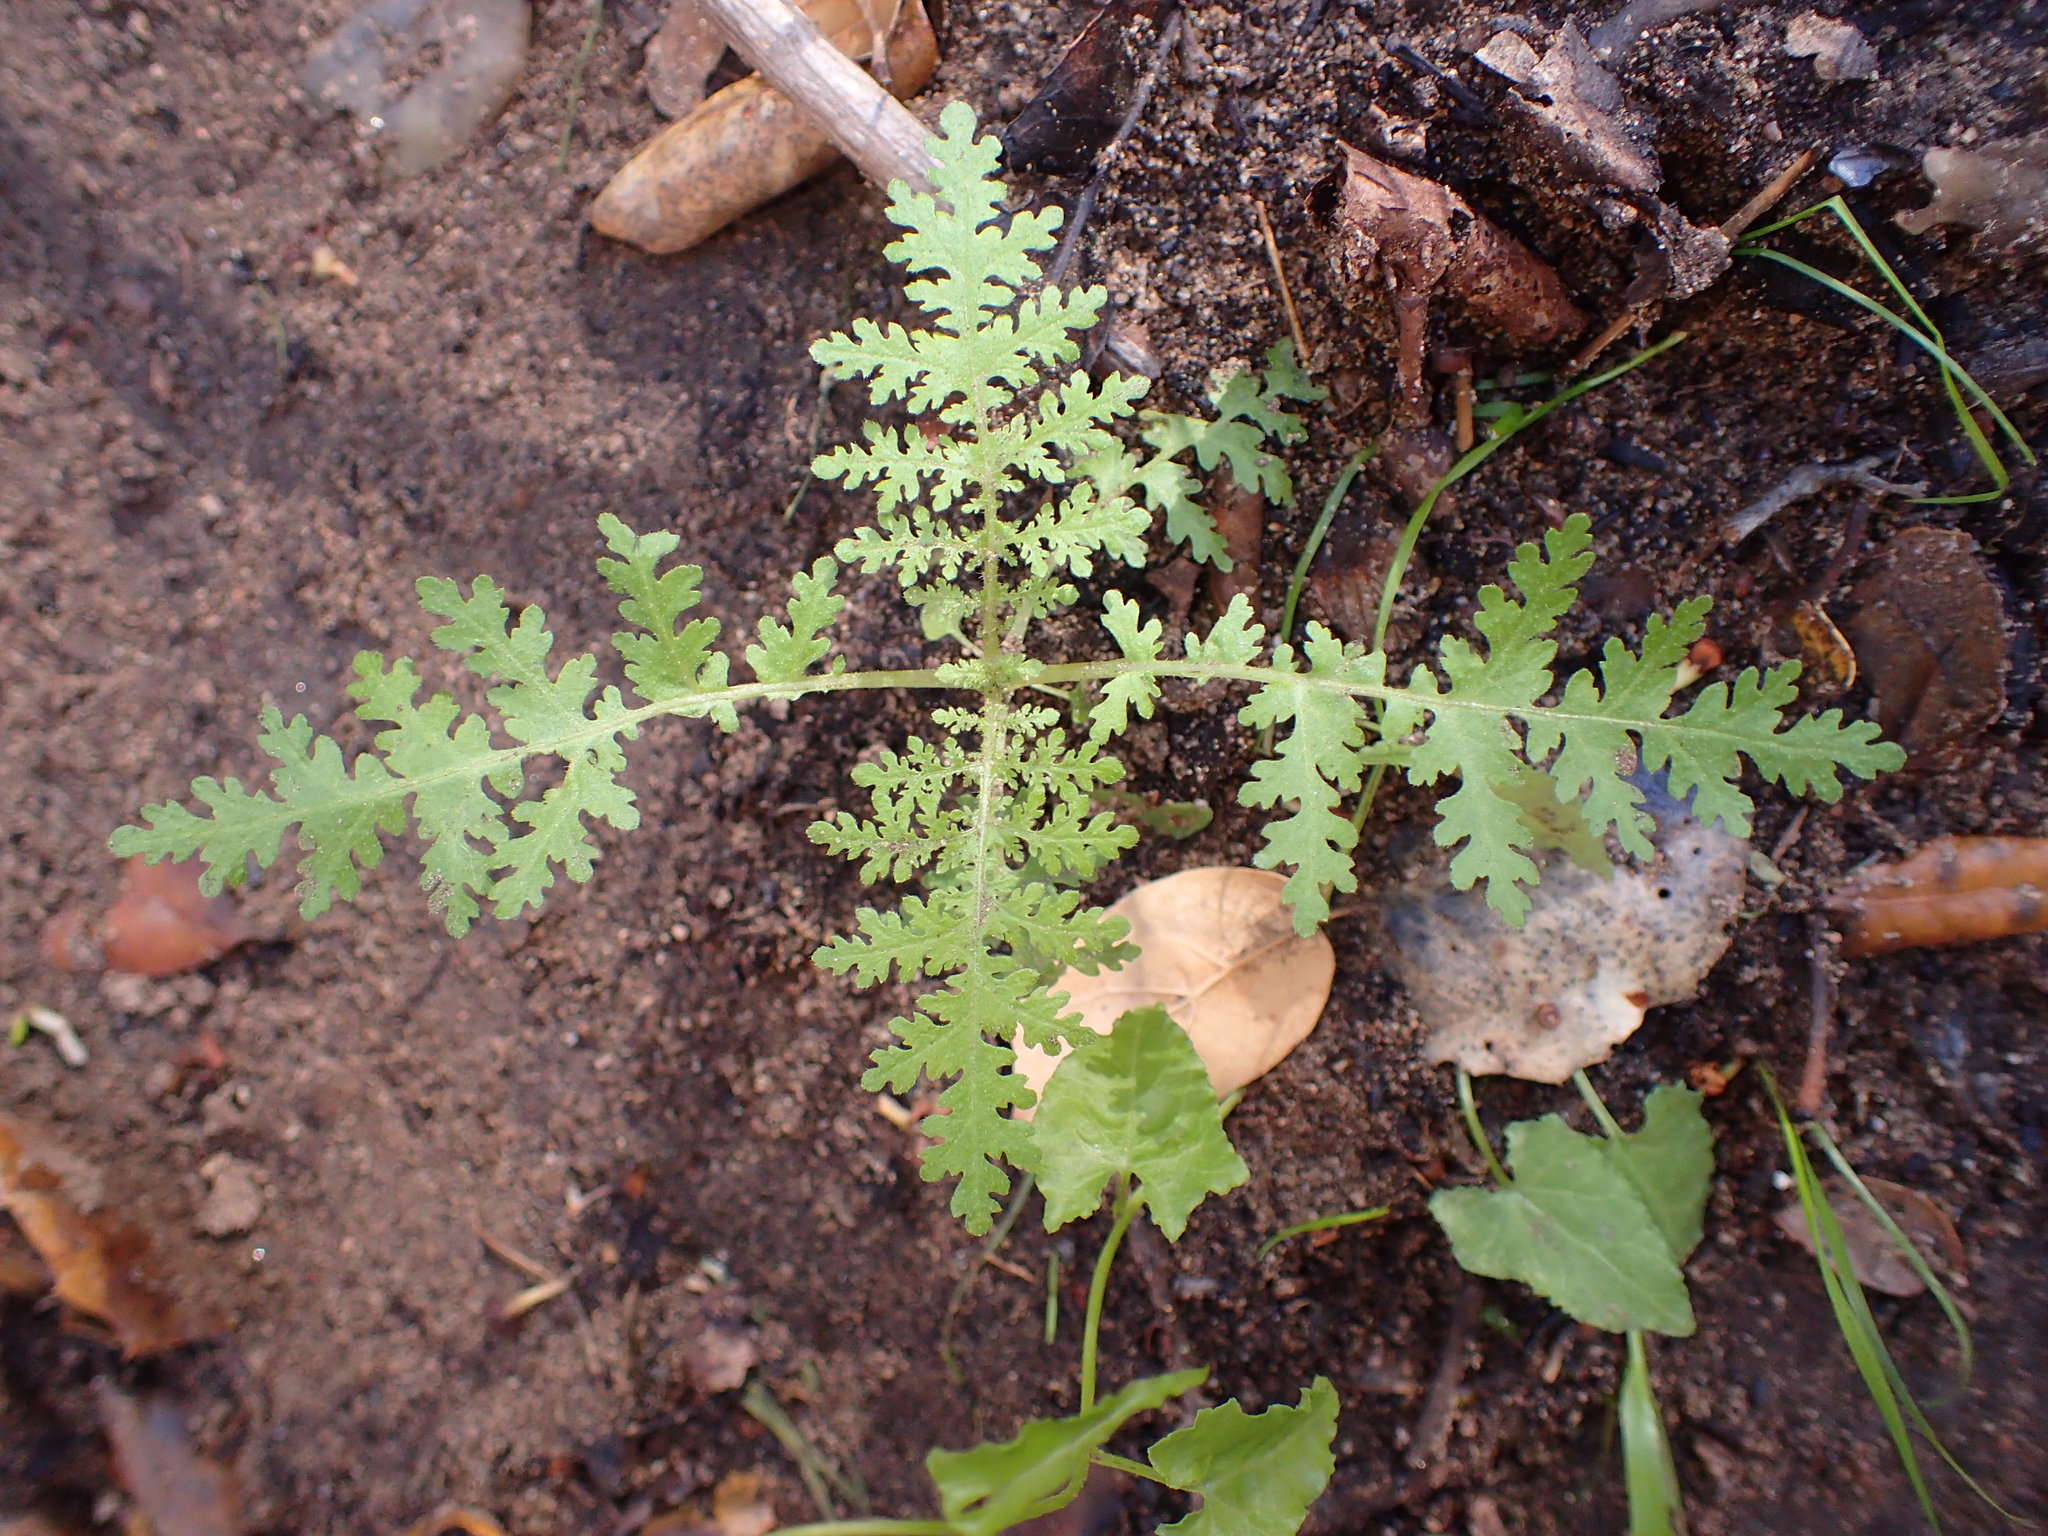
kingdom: Plantae
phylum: Tracheophyta
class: Magnoliopsida
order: Boraginales
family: Hydrophyllaceae
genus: Eucrypta
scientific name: Eucrypta chrysanthemifolia
